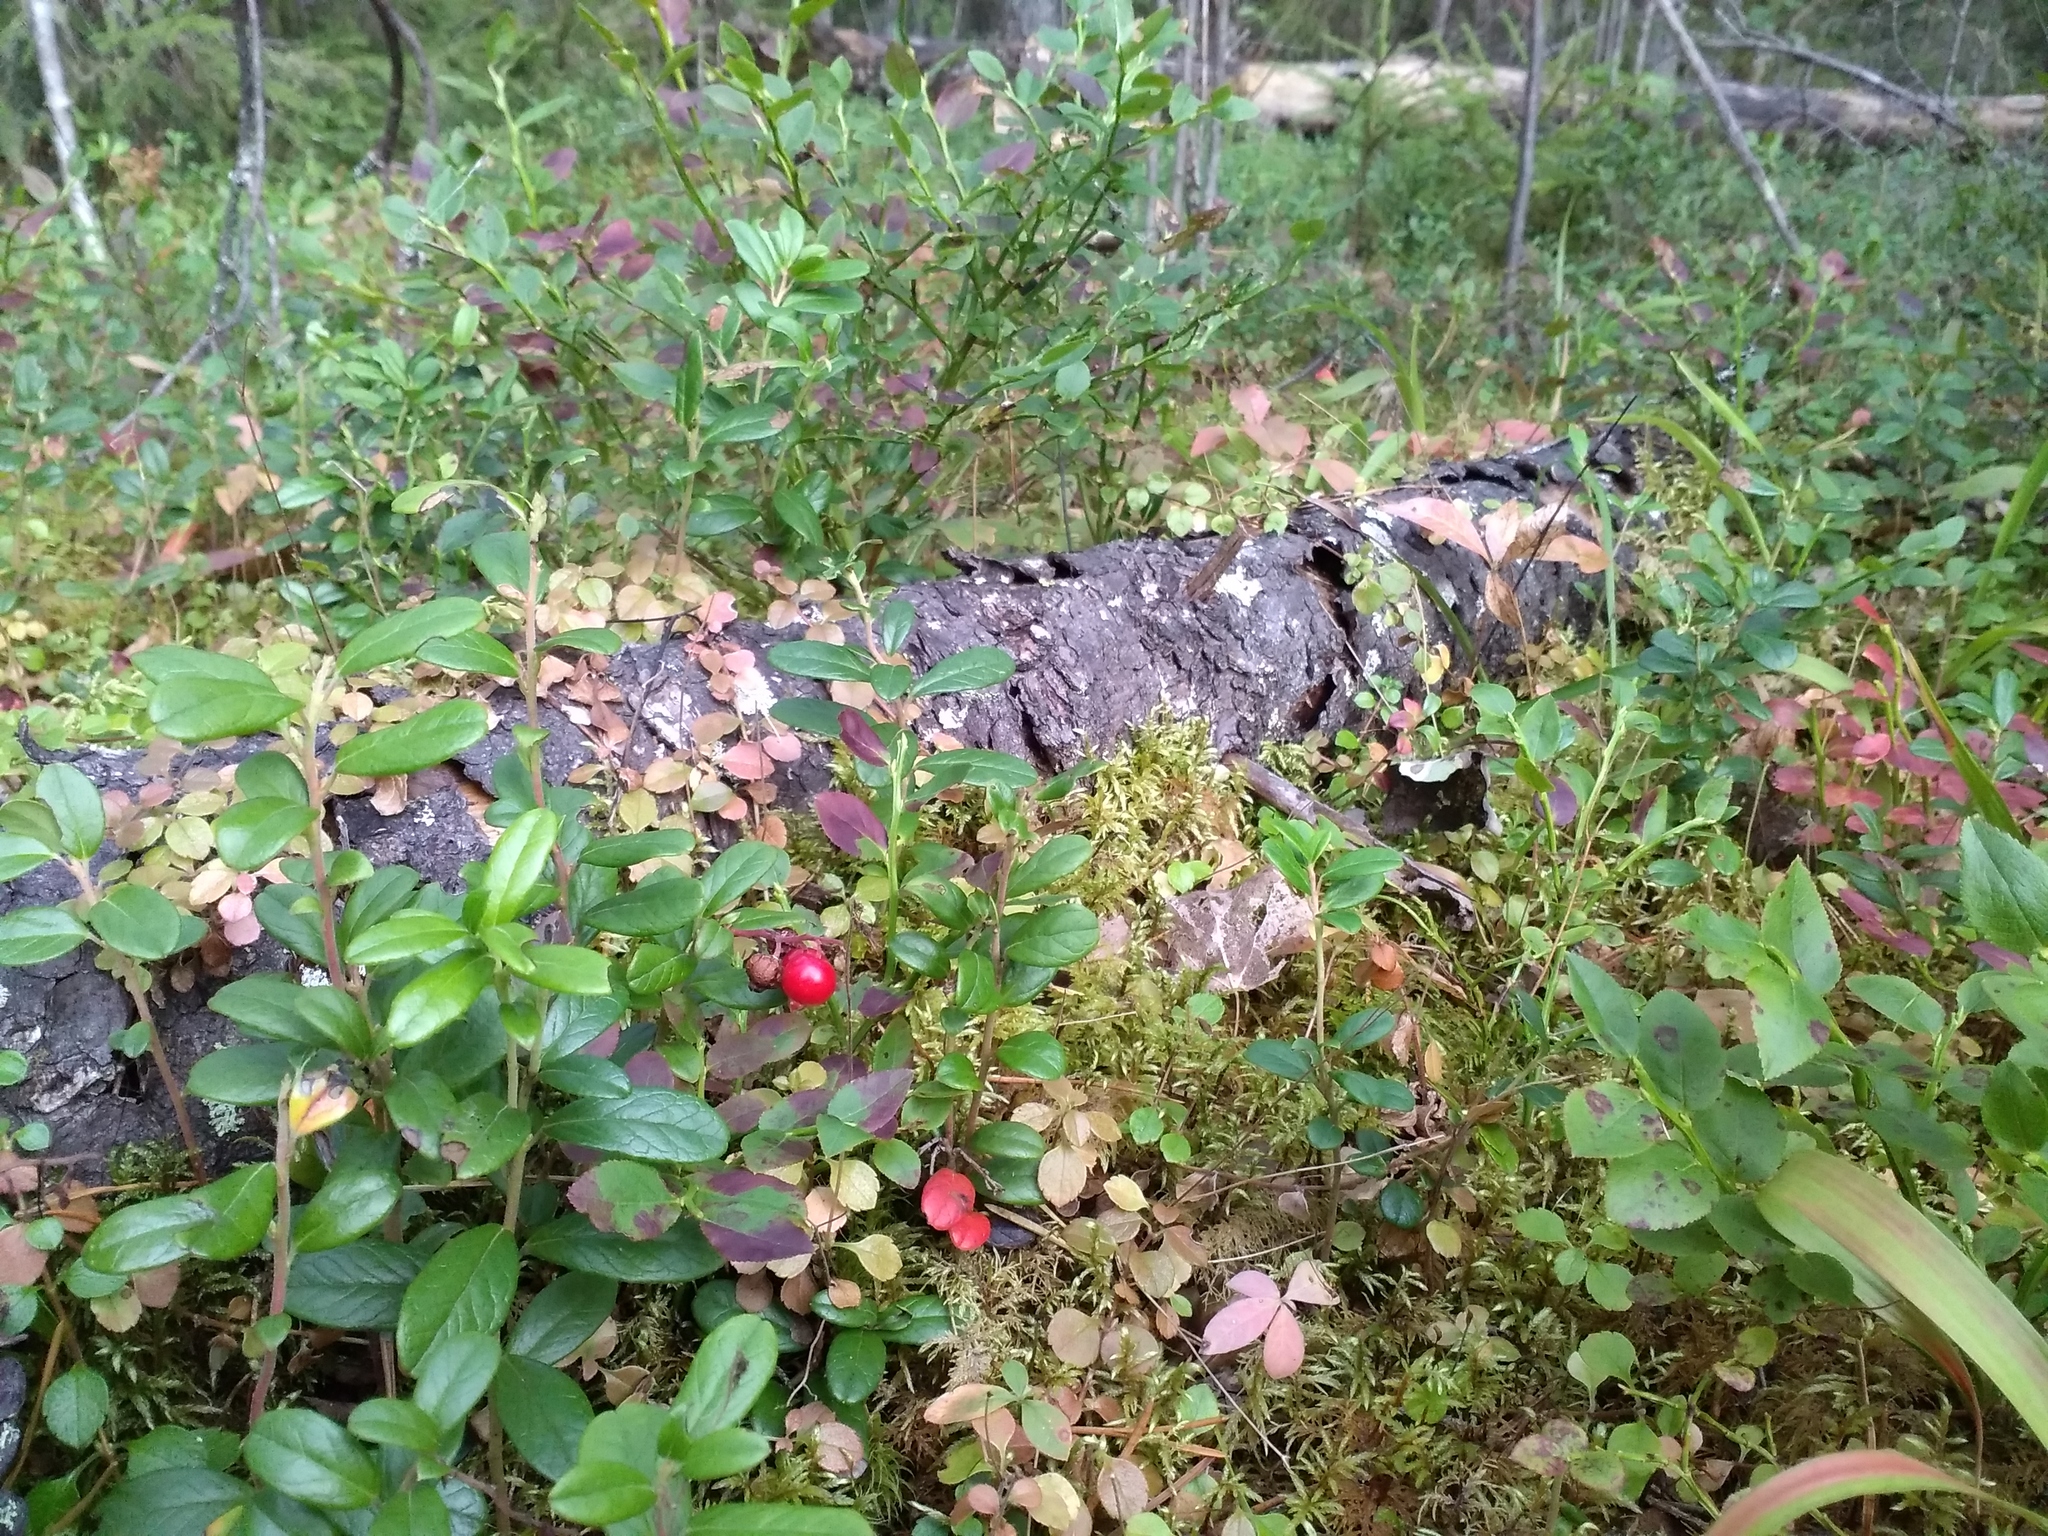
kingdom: Plantae
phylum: Tracheophyta
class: Magnoliopsida
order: Ericales
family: Ericaceae
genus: Vaccinium
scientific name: Vaccinium vitis-idaea
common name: Cowberry
